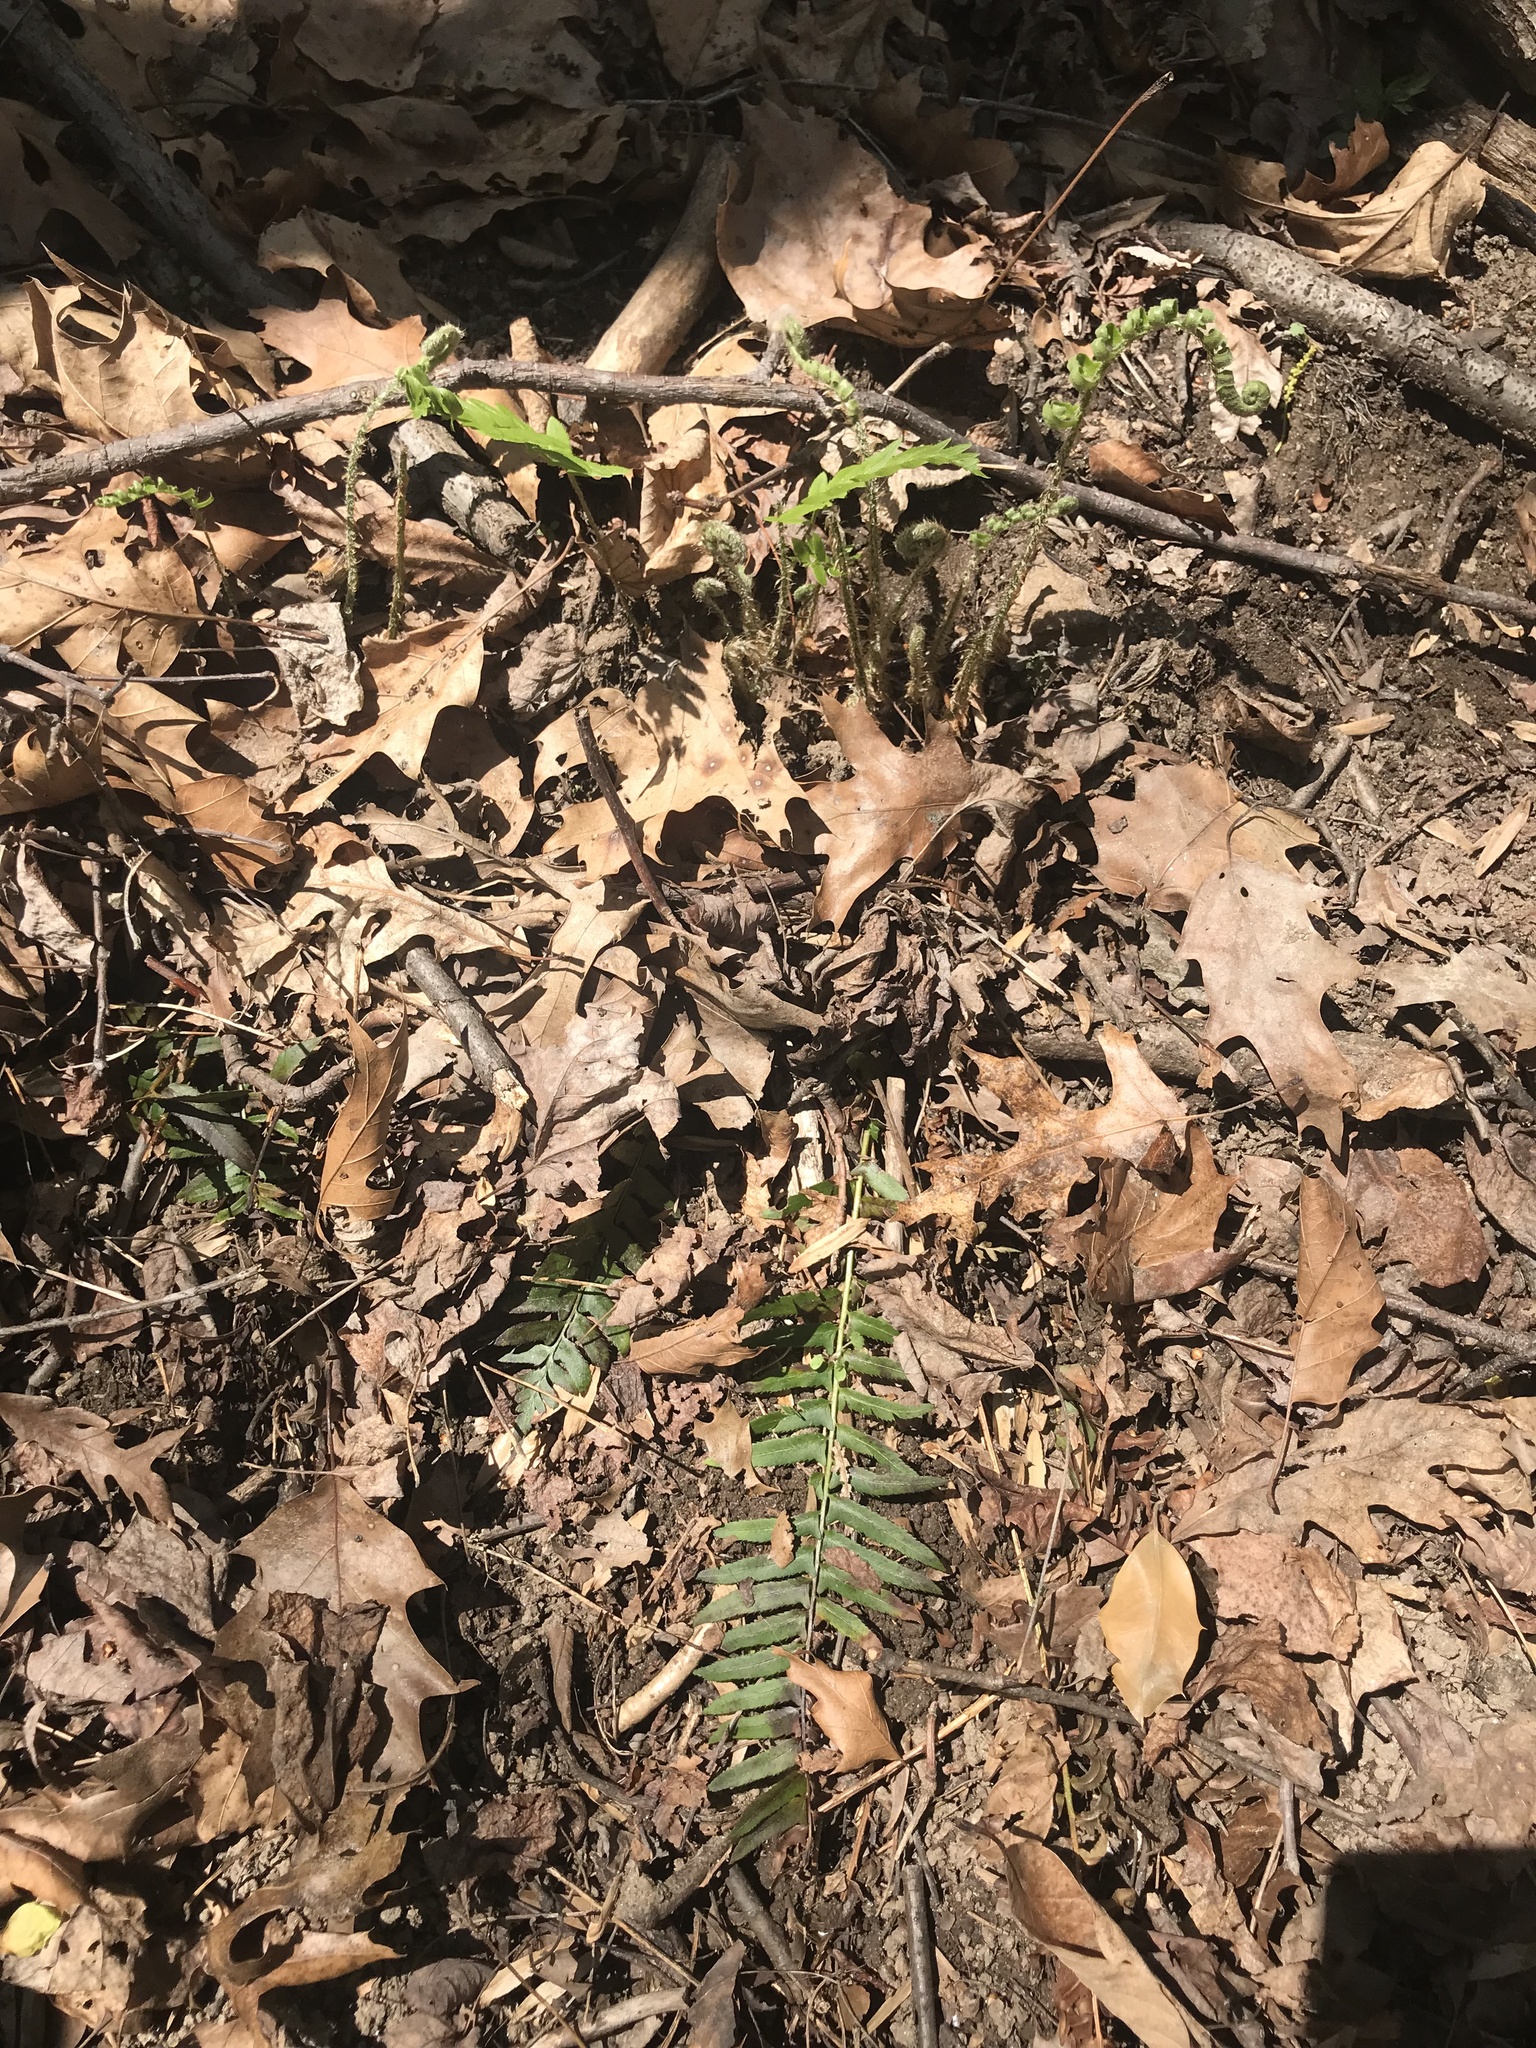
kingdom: Plantae
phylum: Tracheophyta
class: Polypodiopsida
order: Polypodiales
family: Dryopteridaceae
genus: Polystichum
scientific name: Polystichum acrostichoides
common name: Christmas fern
